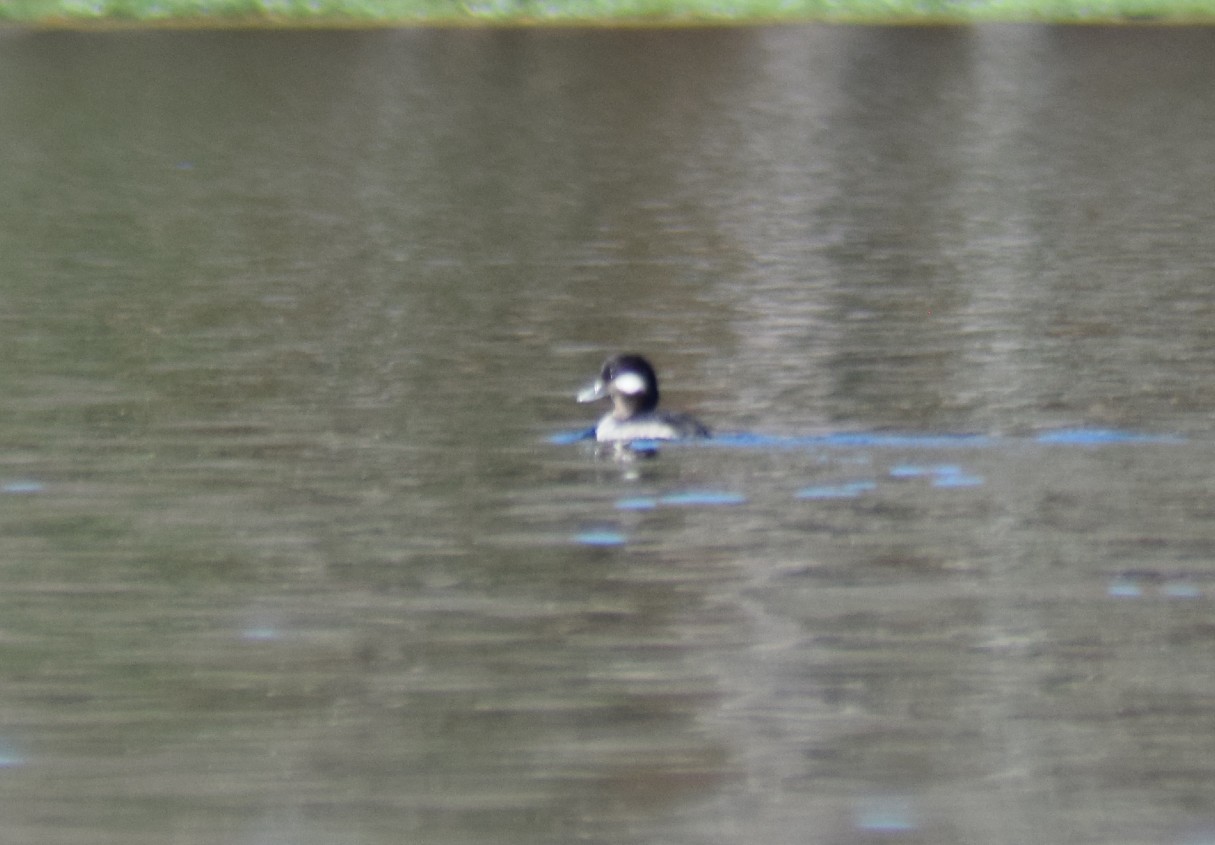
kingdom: Animalia
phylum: Chordata
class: Aves
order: Anseriformes
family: Anatidae
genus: Bucephala
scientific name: Bucephala albeola
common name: Bufflehead
